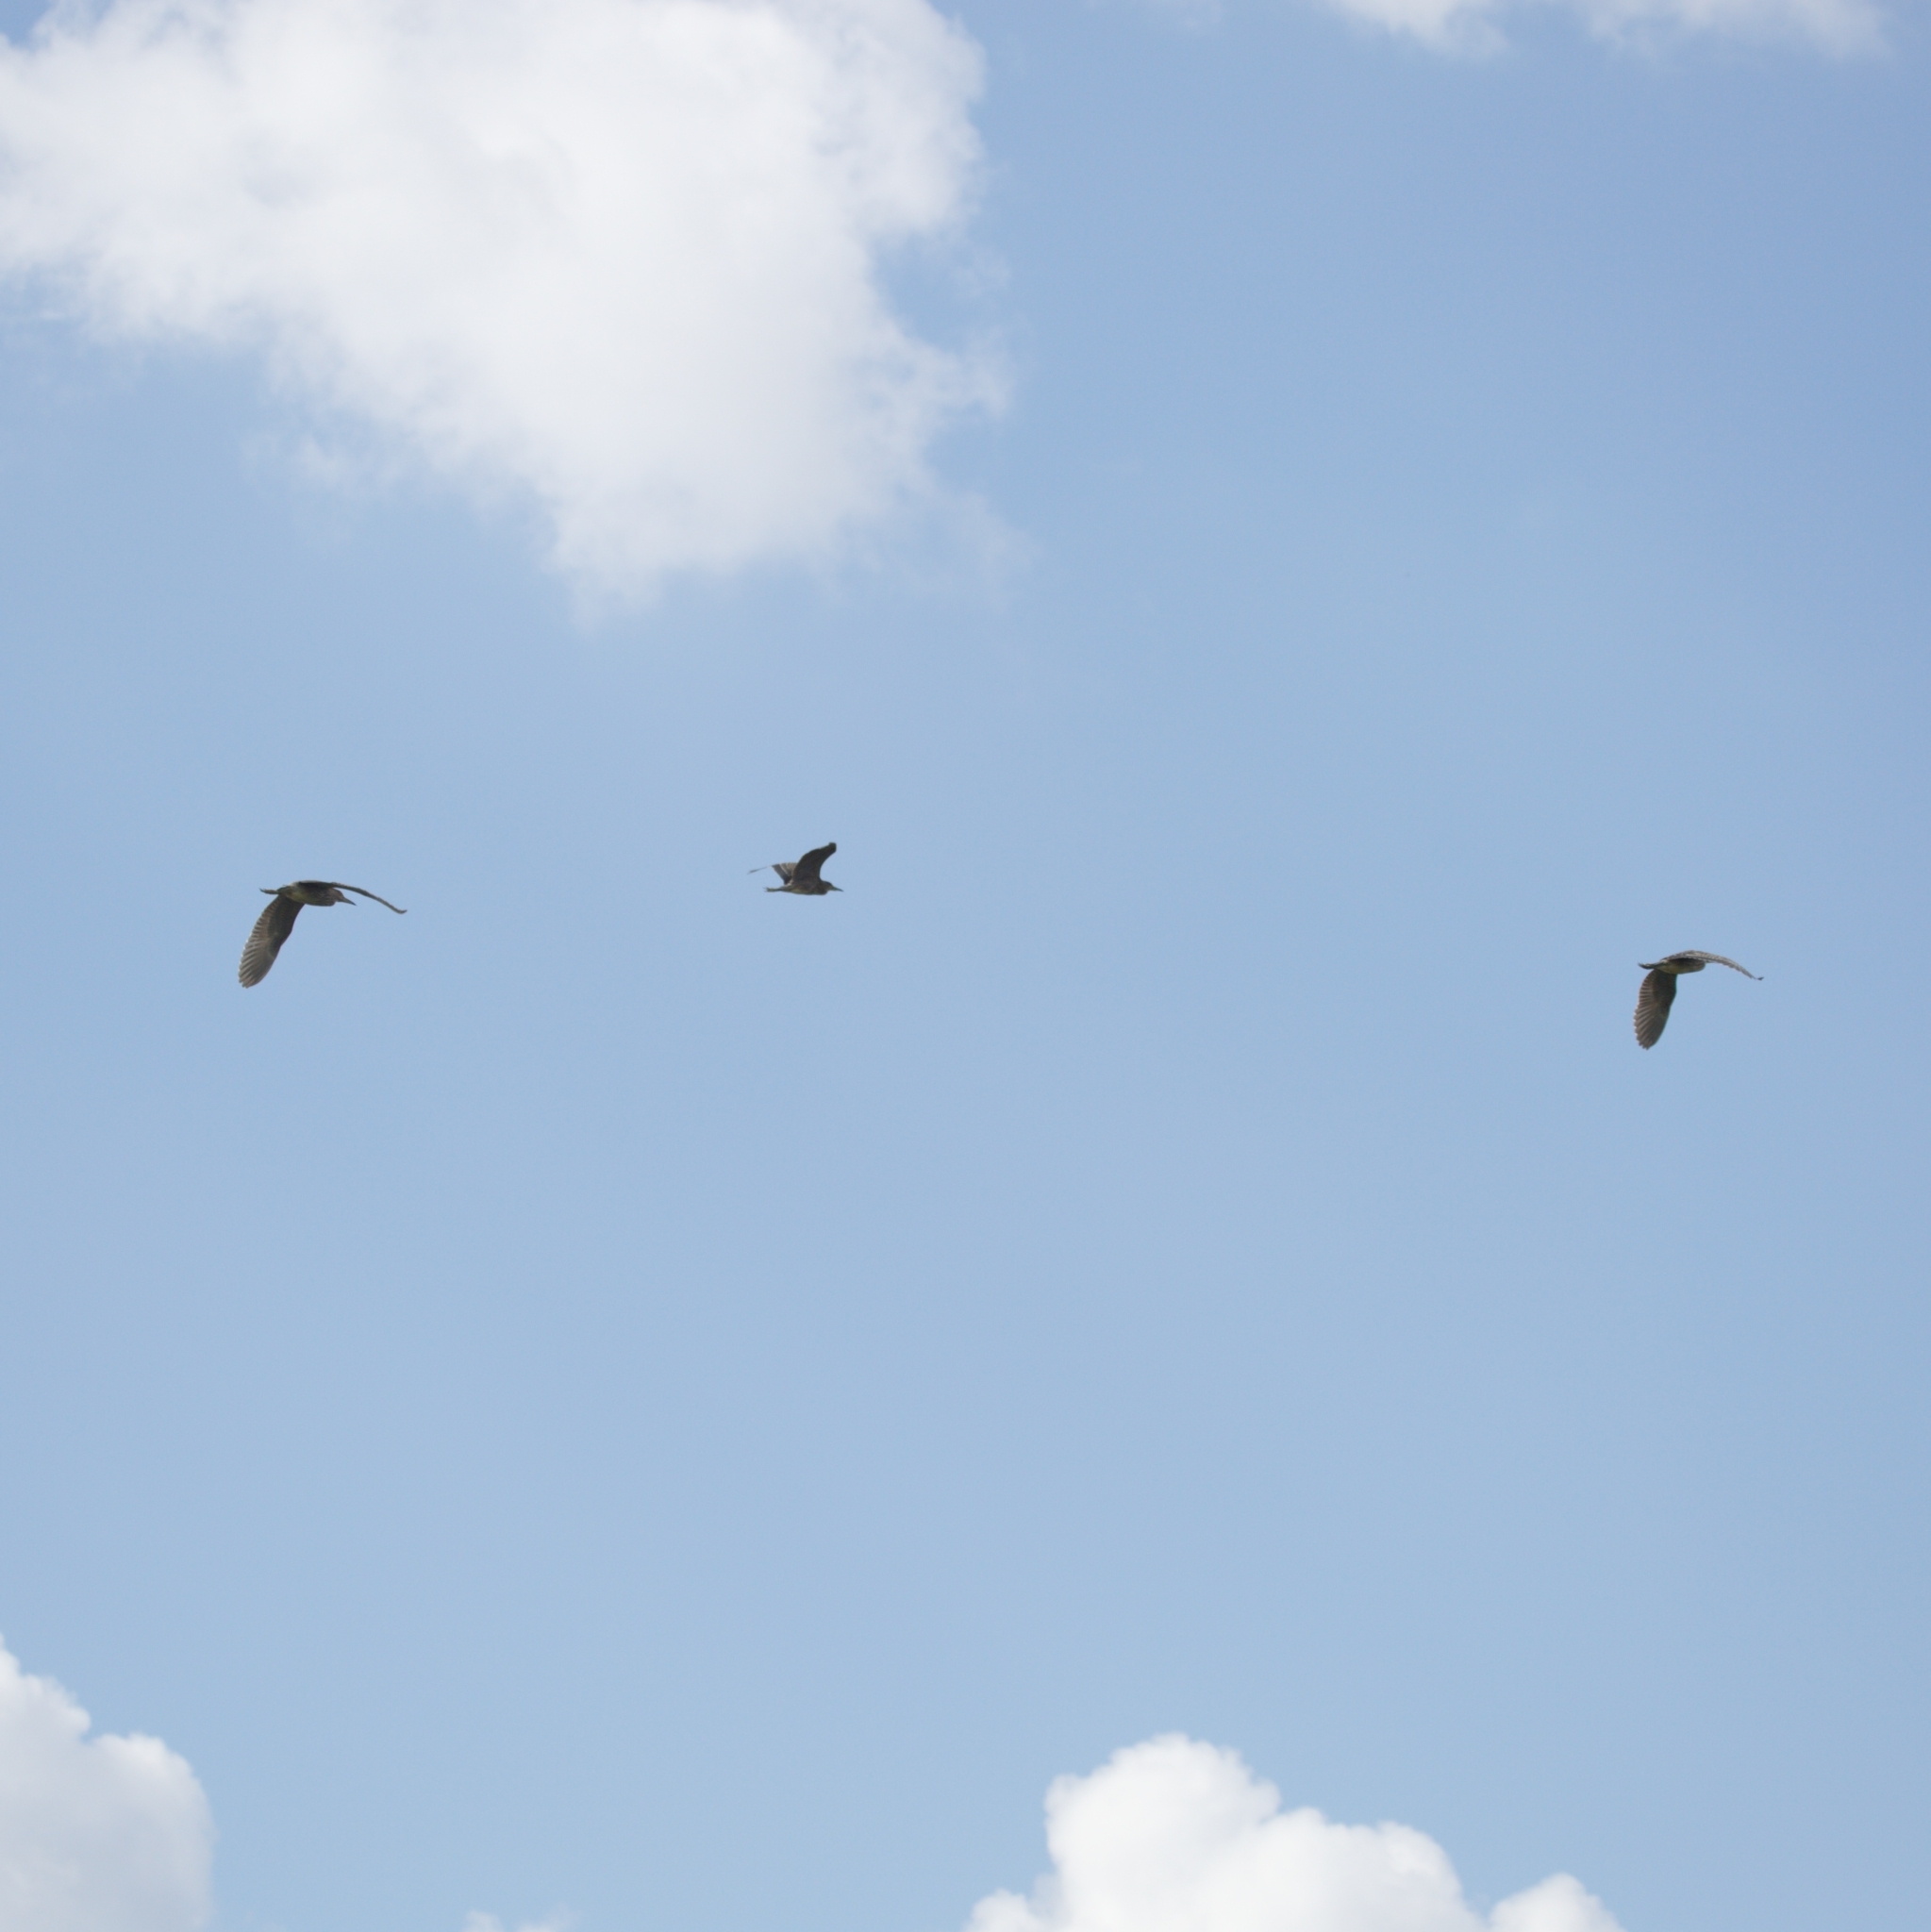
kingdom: Animalia
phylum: Chordata
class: Aves
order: Pelecaniformes
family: Ardeidae
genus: Nycticorax
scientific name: Nycticorax nycticorax
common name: Black-crowned night heron
